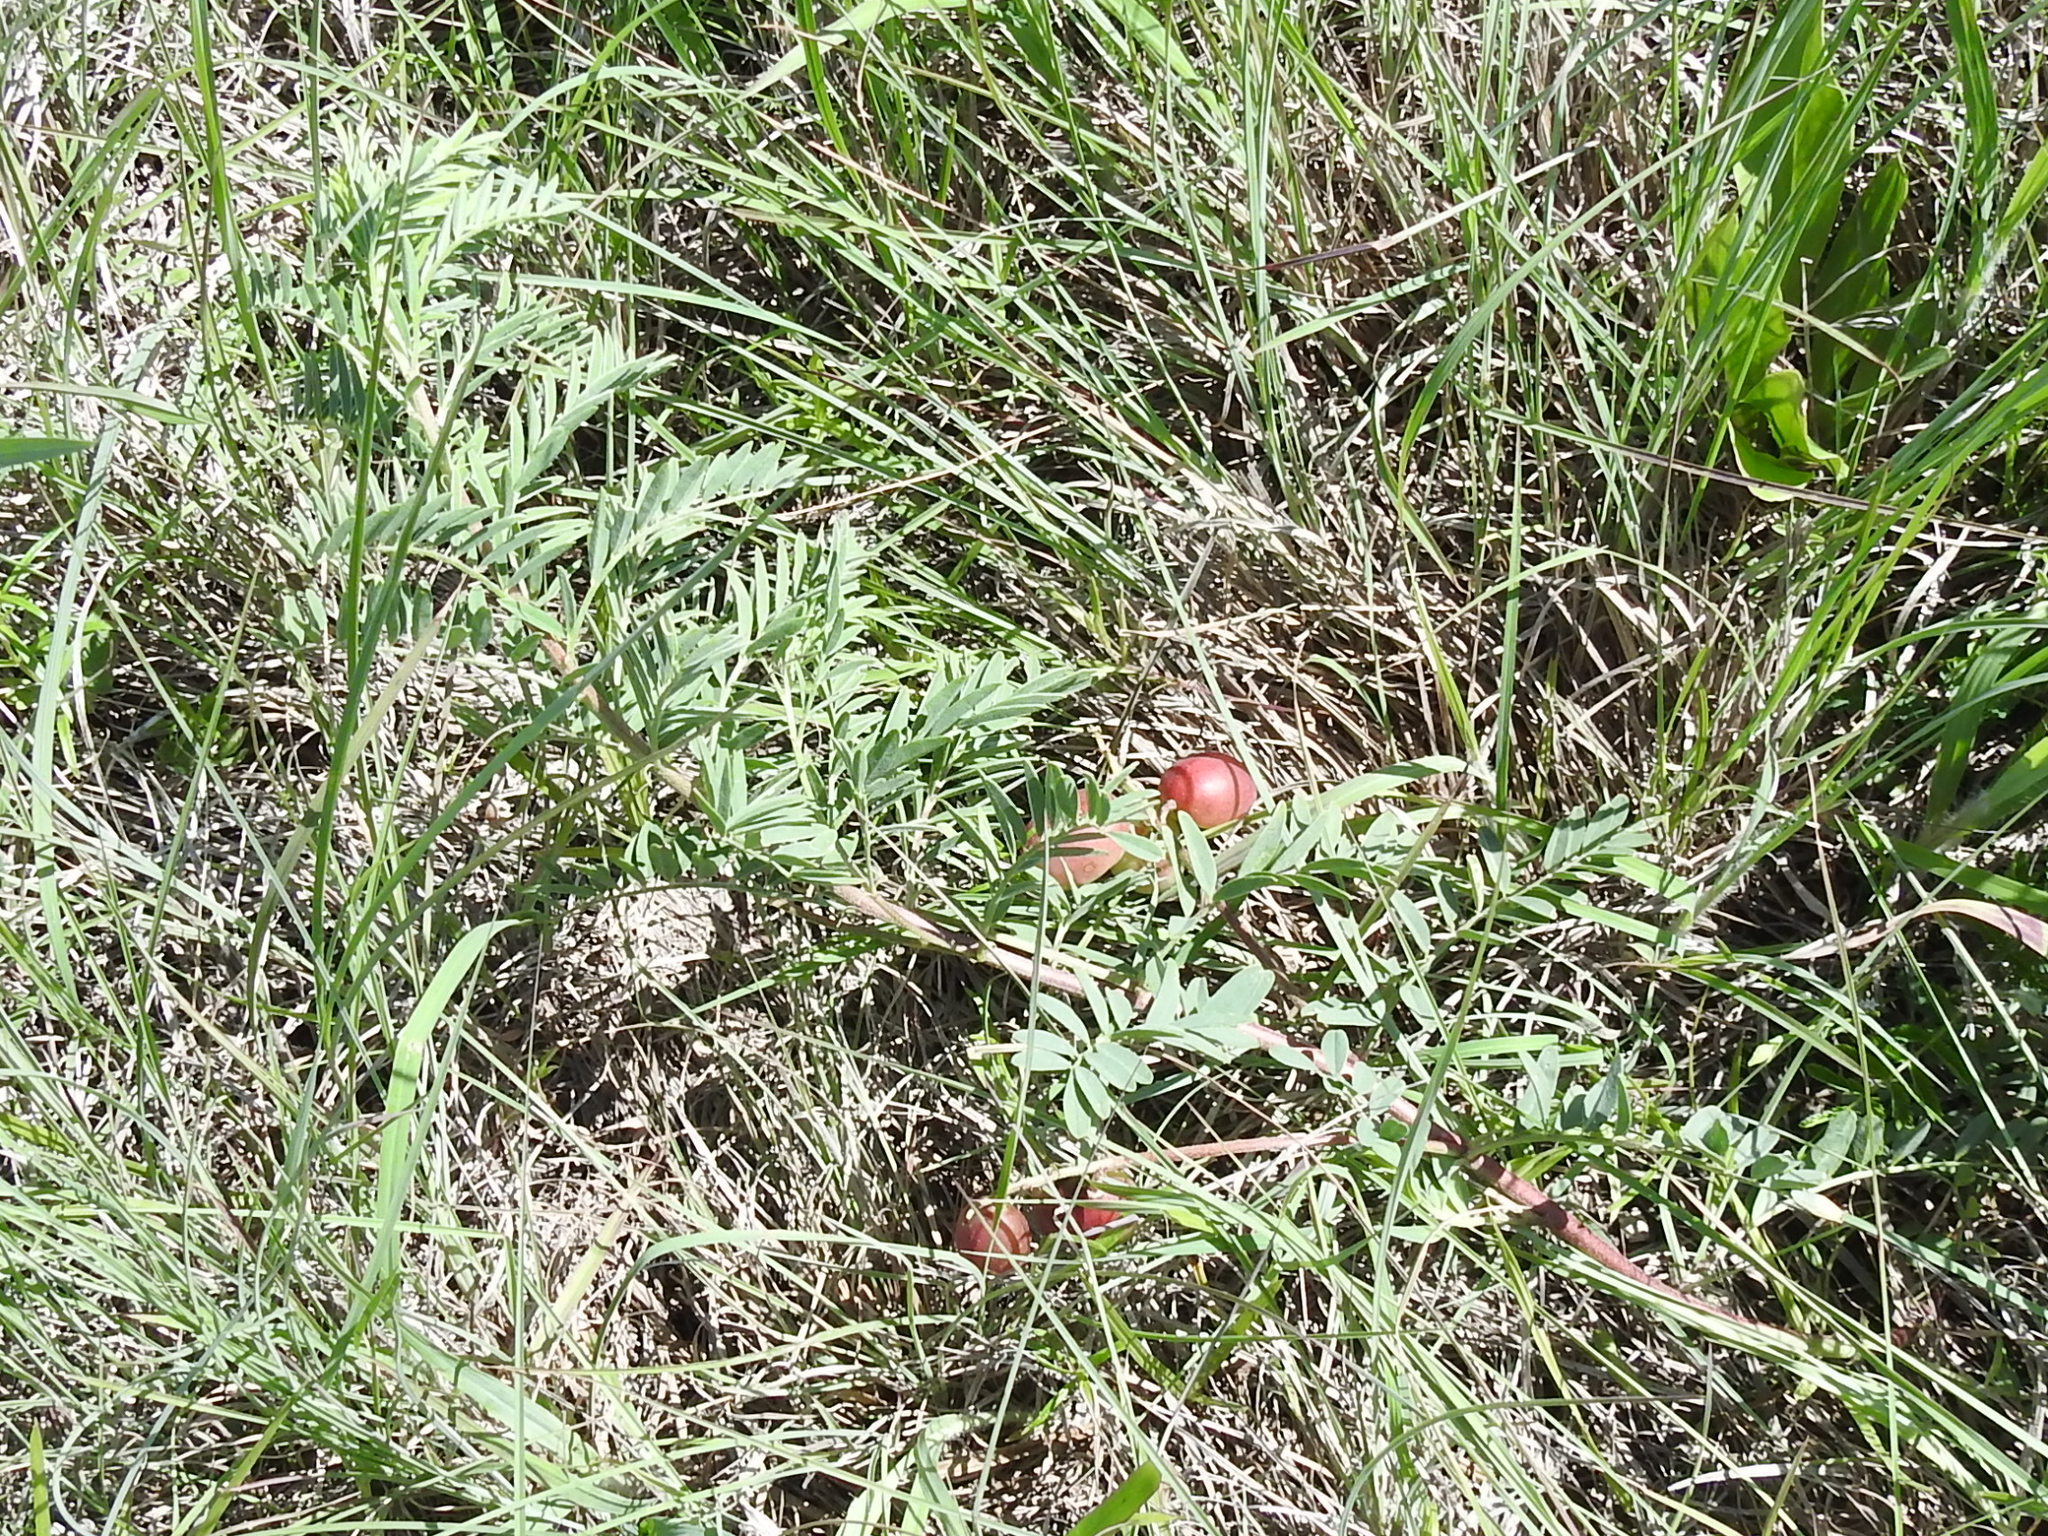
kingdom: Plantae
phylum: Tracheophyta
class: Magnoliopsida
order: Fabales
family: Fabaceae
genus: Astragalus
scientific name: Astragalus crassicarpus
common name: Ground-plum milk-vetch
